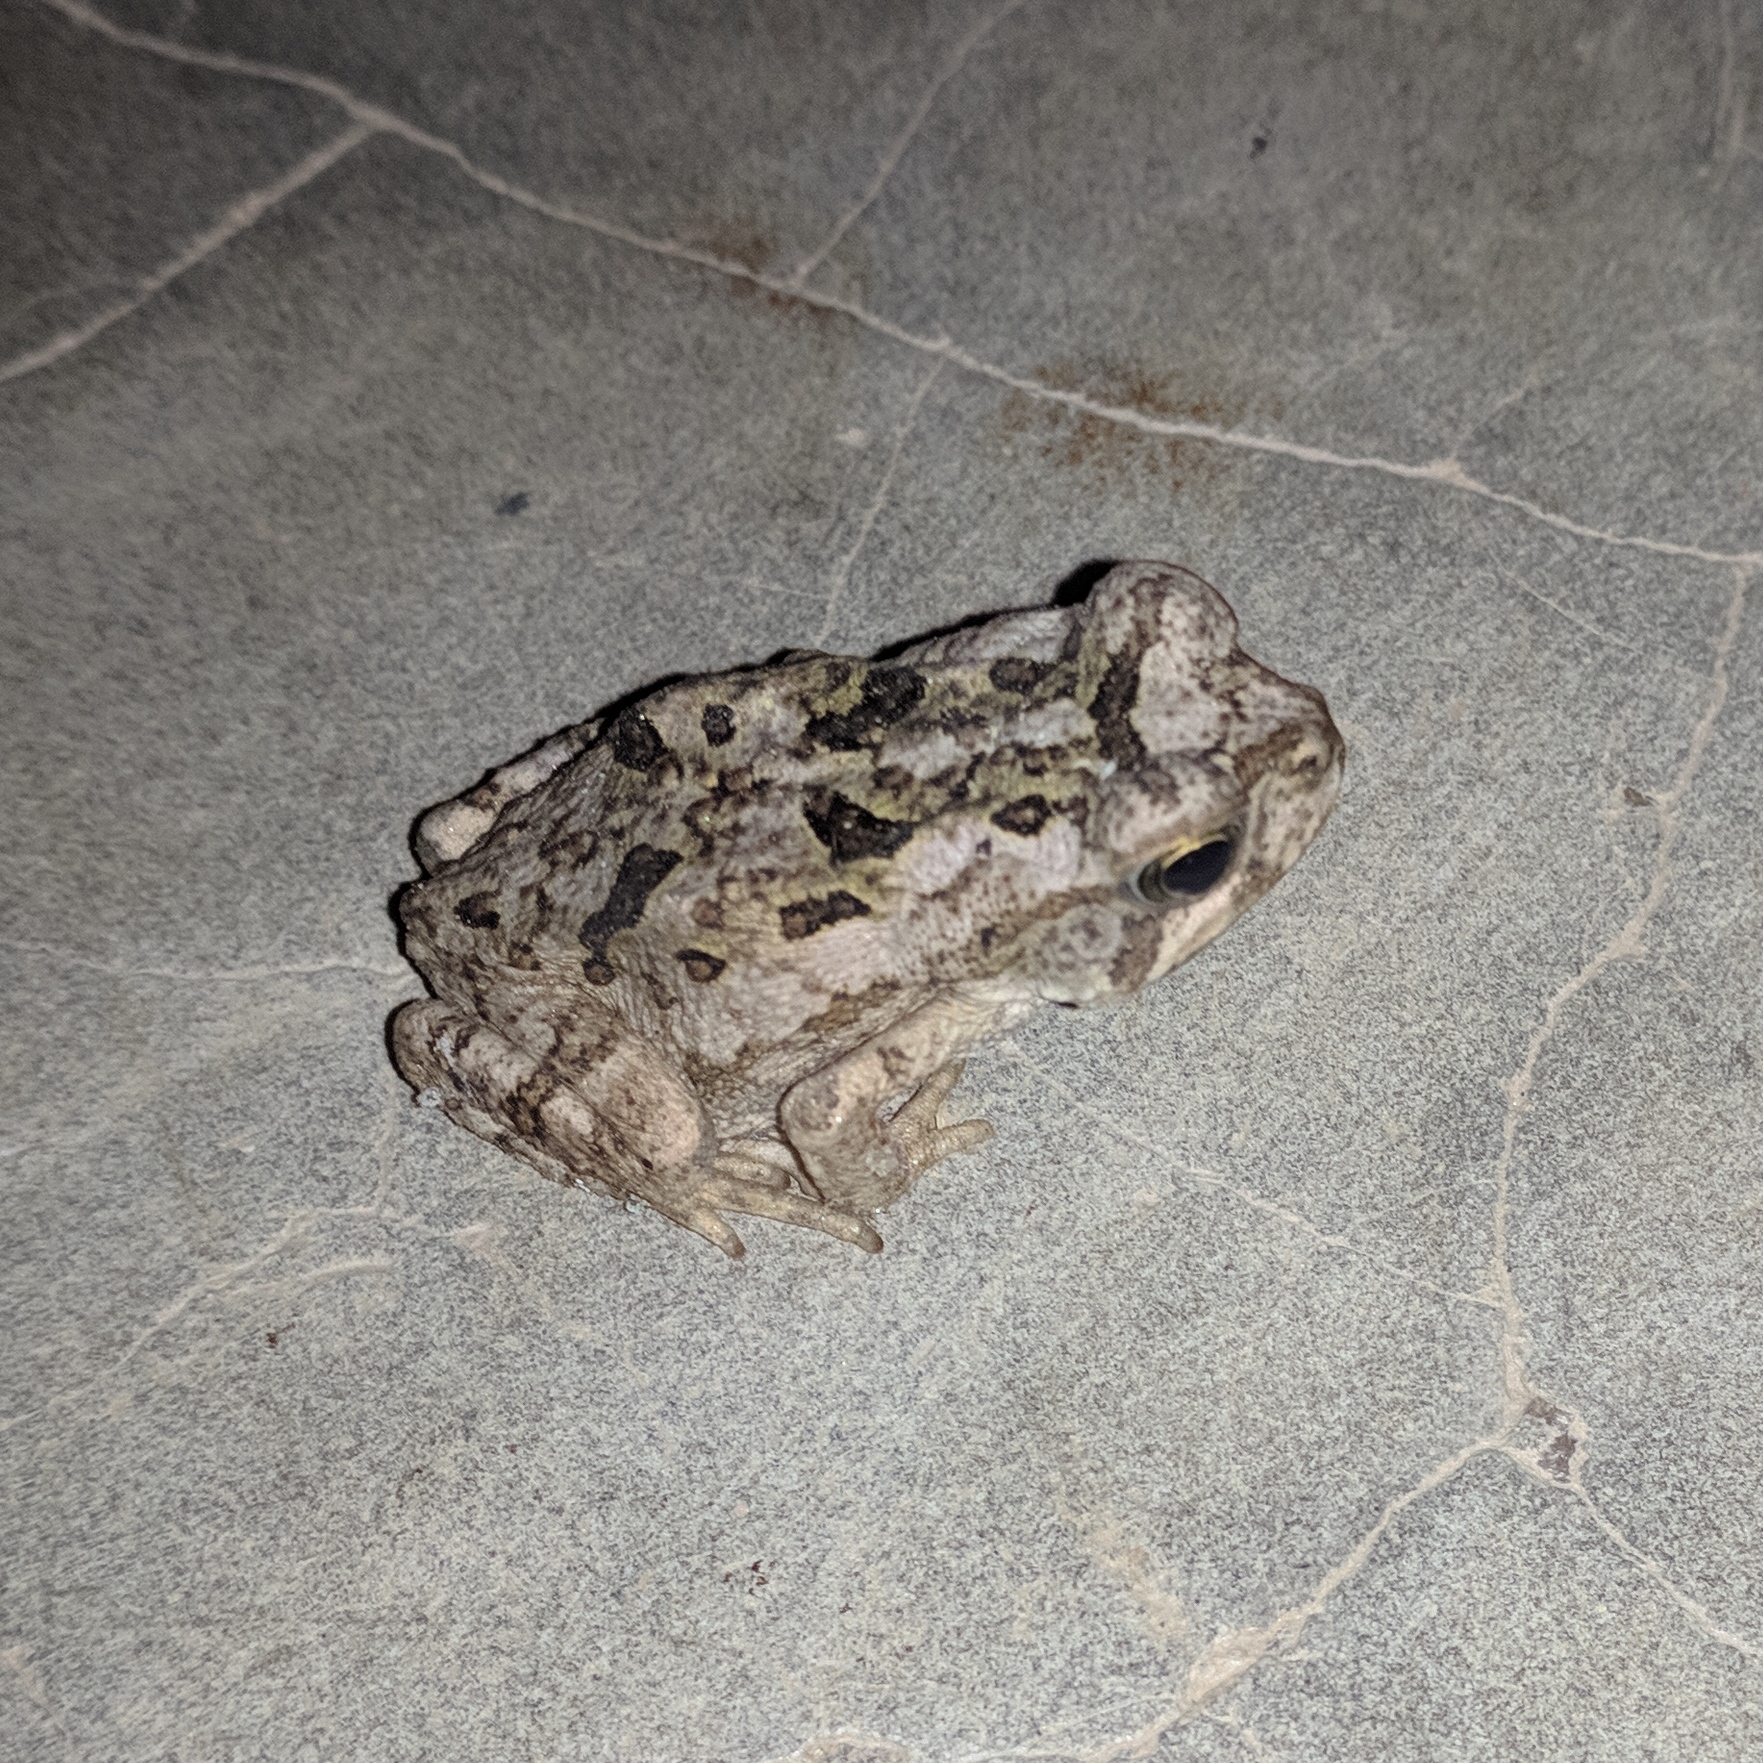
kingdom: Animalia
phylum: Chordata
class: Amphibia
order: Anura
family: Bufonidae
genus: Rhinella
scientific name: Rhinella diptycha
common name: Cope's toad
